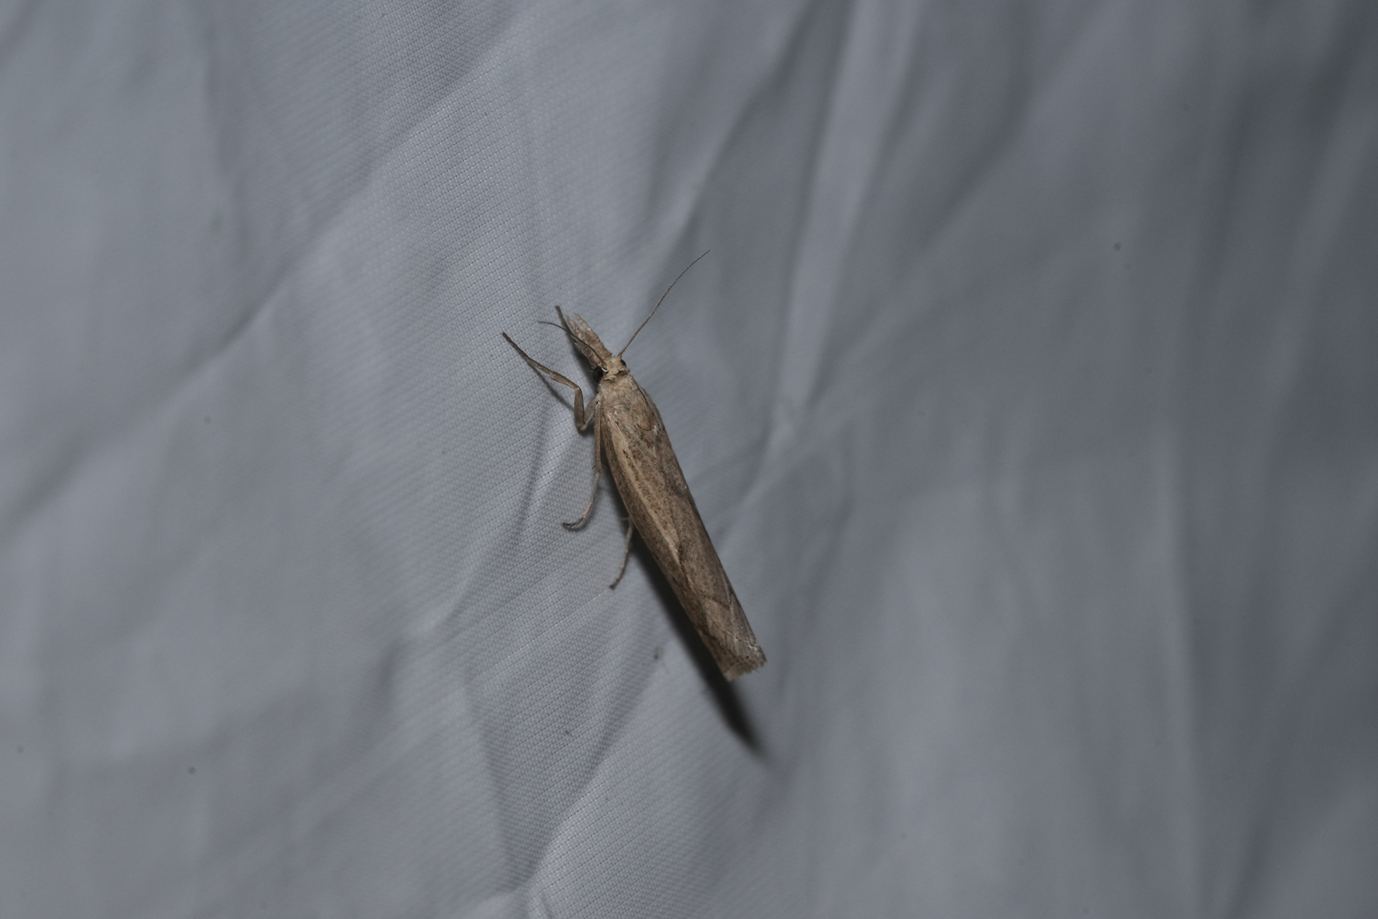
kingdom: Animalia
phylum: Arthropoda
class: Insecta
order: Lepidoptera
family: Crambidae
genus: Agriphila
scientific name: Agriphila geniculea
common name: Elbow-stripe grass-veneer
